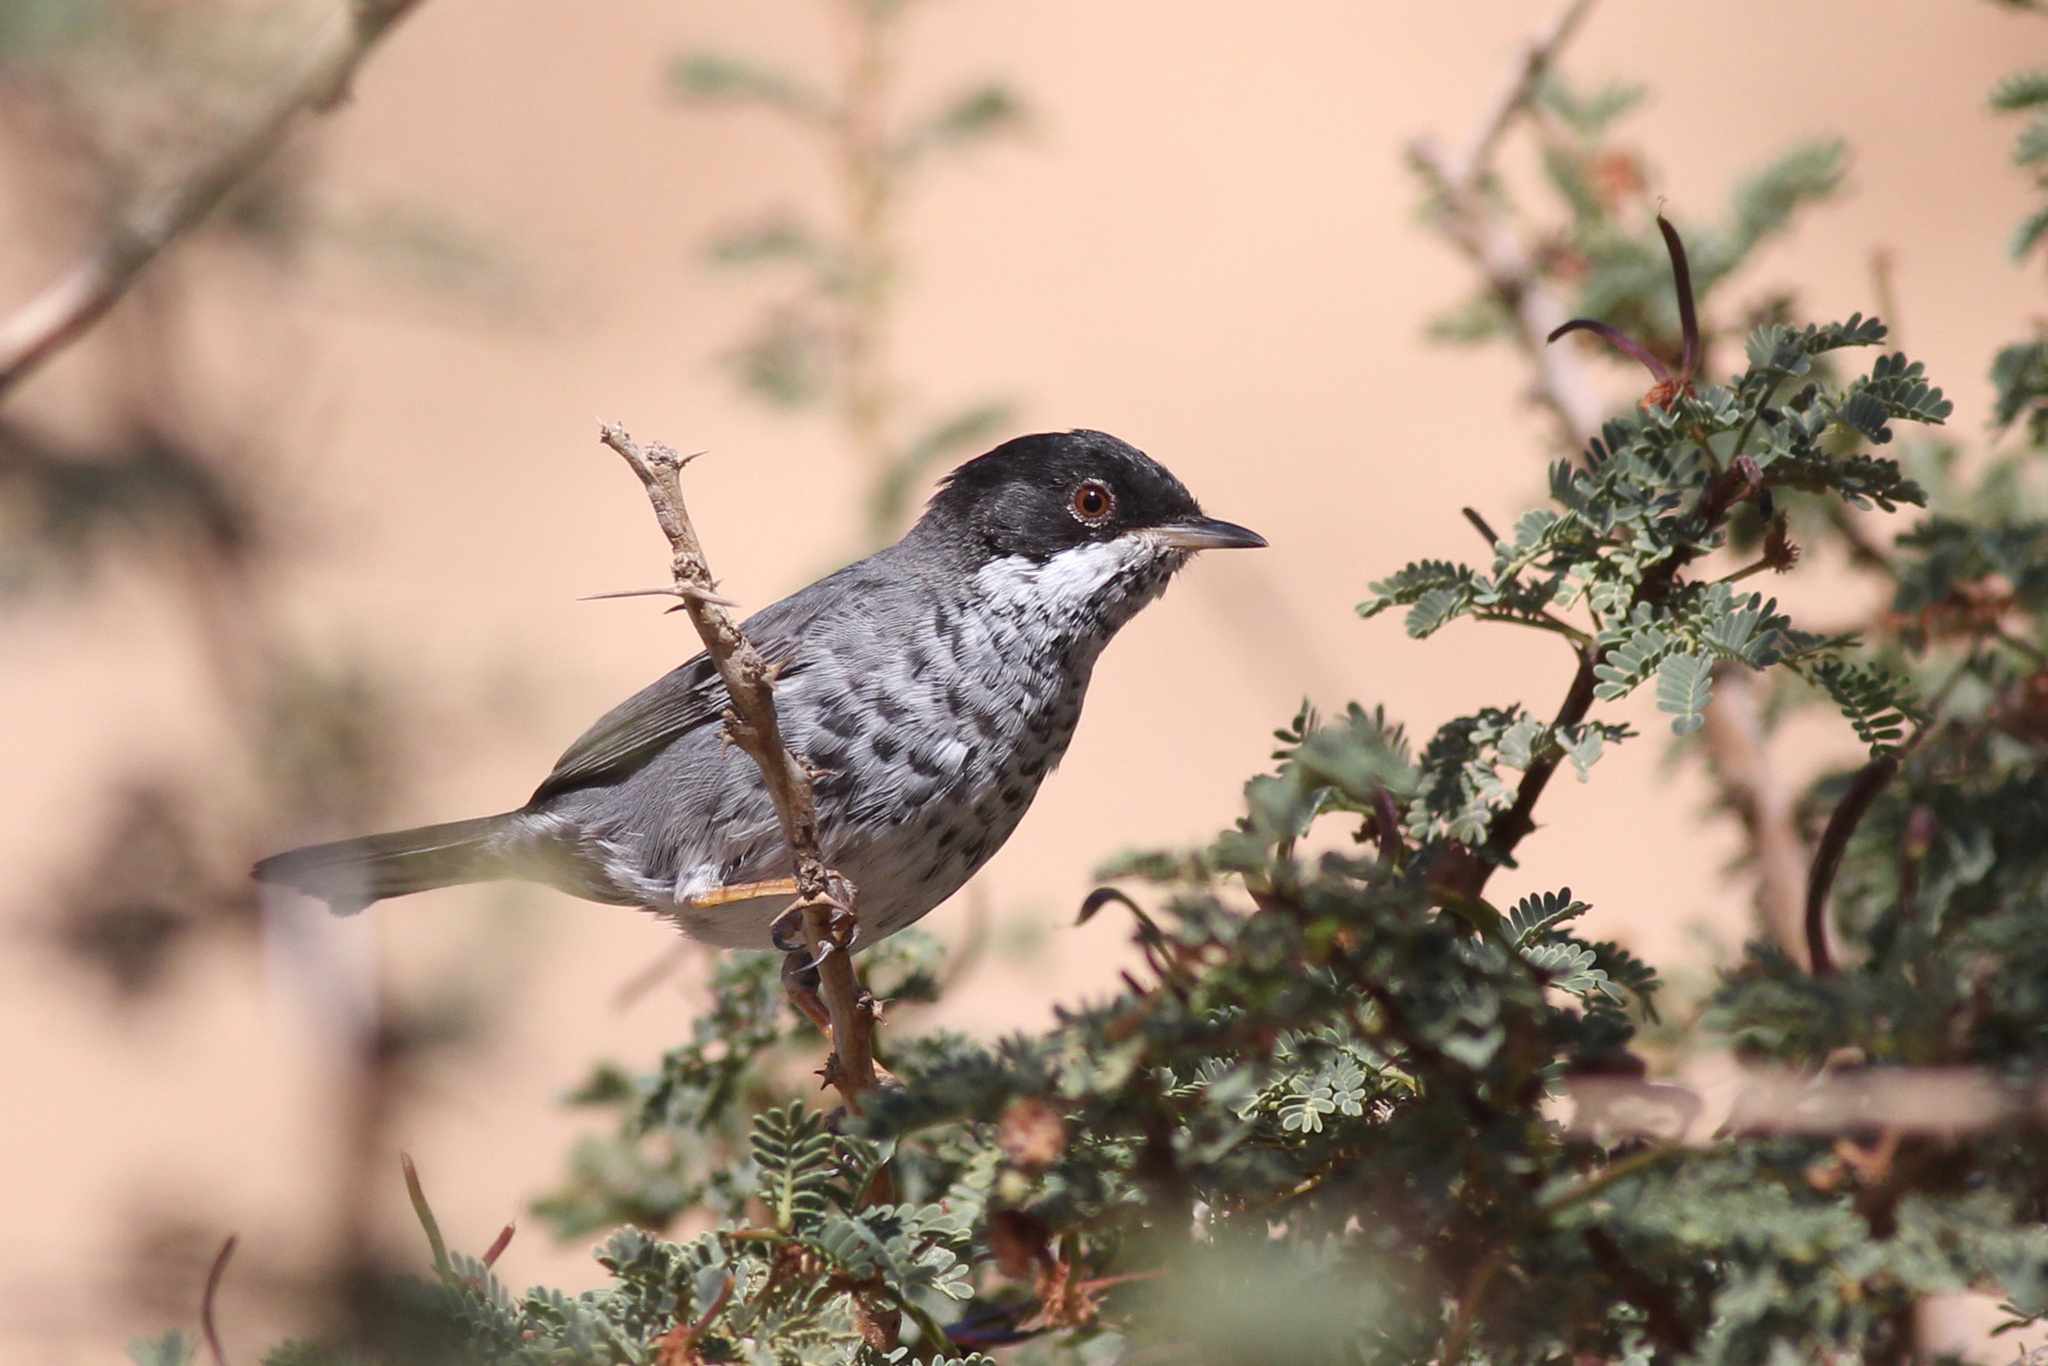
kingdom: Animalia
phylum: Chordata
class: Aves
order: Passeriformes
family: Sylviidae
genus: Sylvia
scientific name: Sylvia melanothorax
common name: Cyprus warbler
